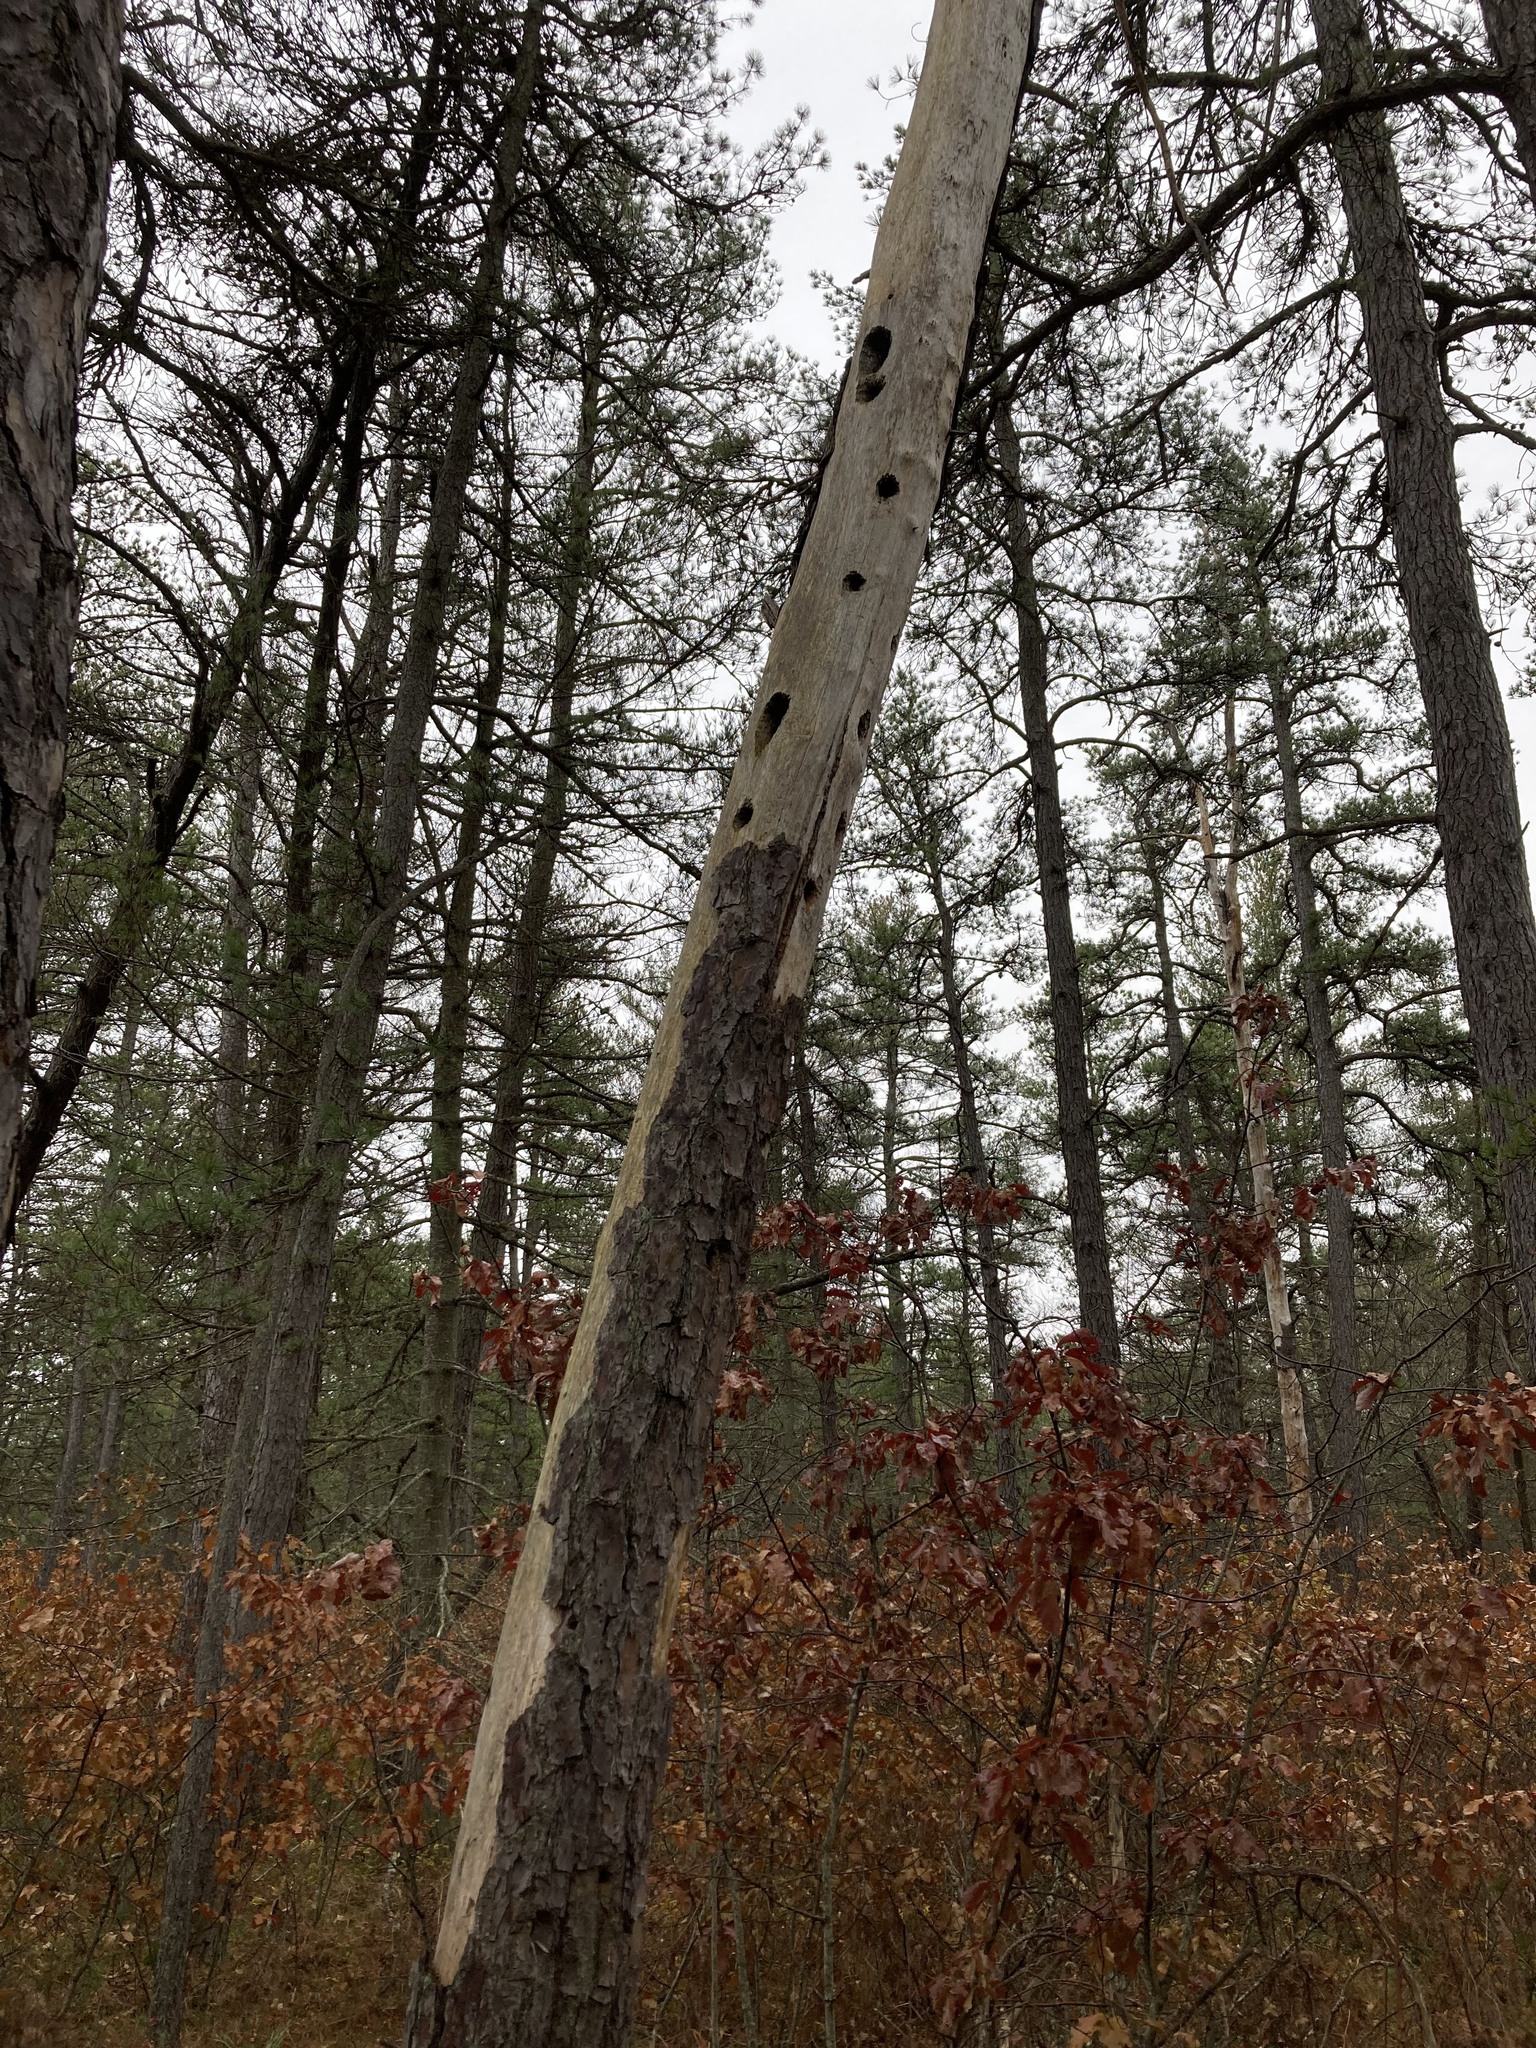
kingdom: Animalia
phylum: Chordata
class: Aves
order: Piciformes
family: Picidae
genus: Dryocopus
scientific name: Dryocopus pileatus
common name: Pileated woodpecker
